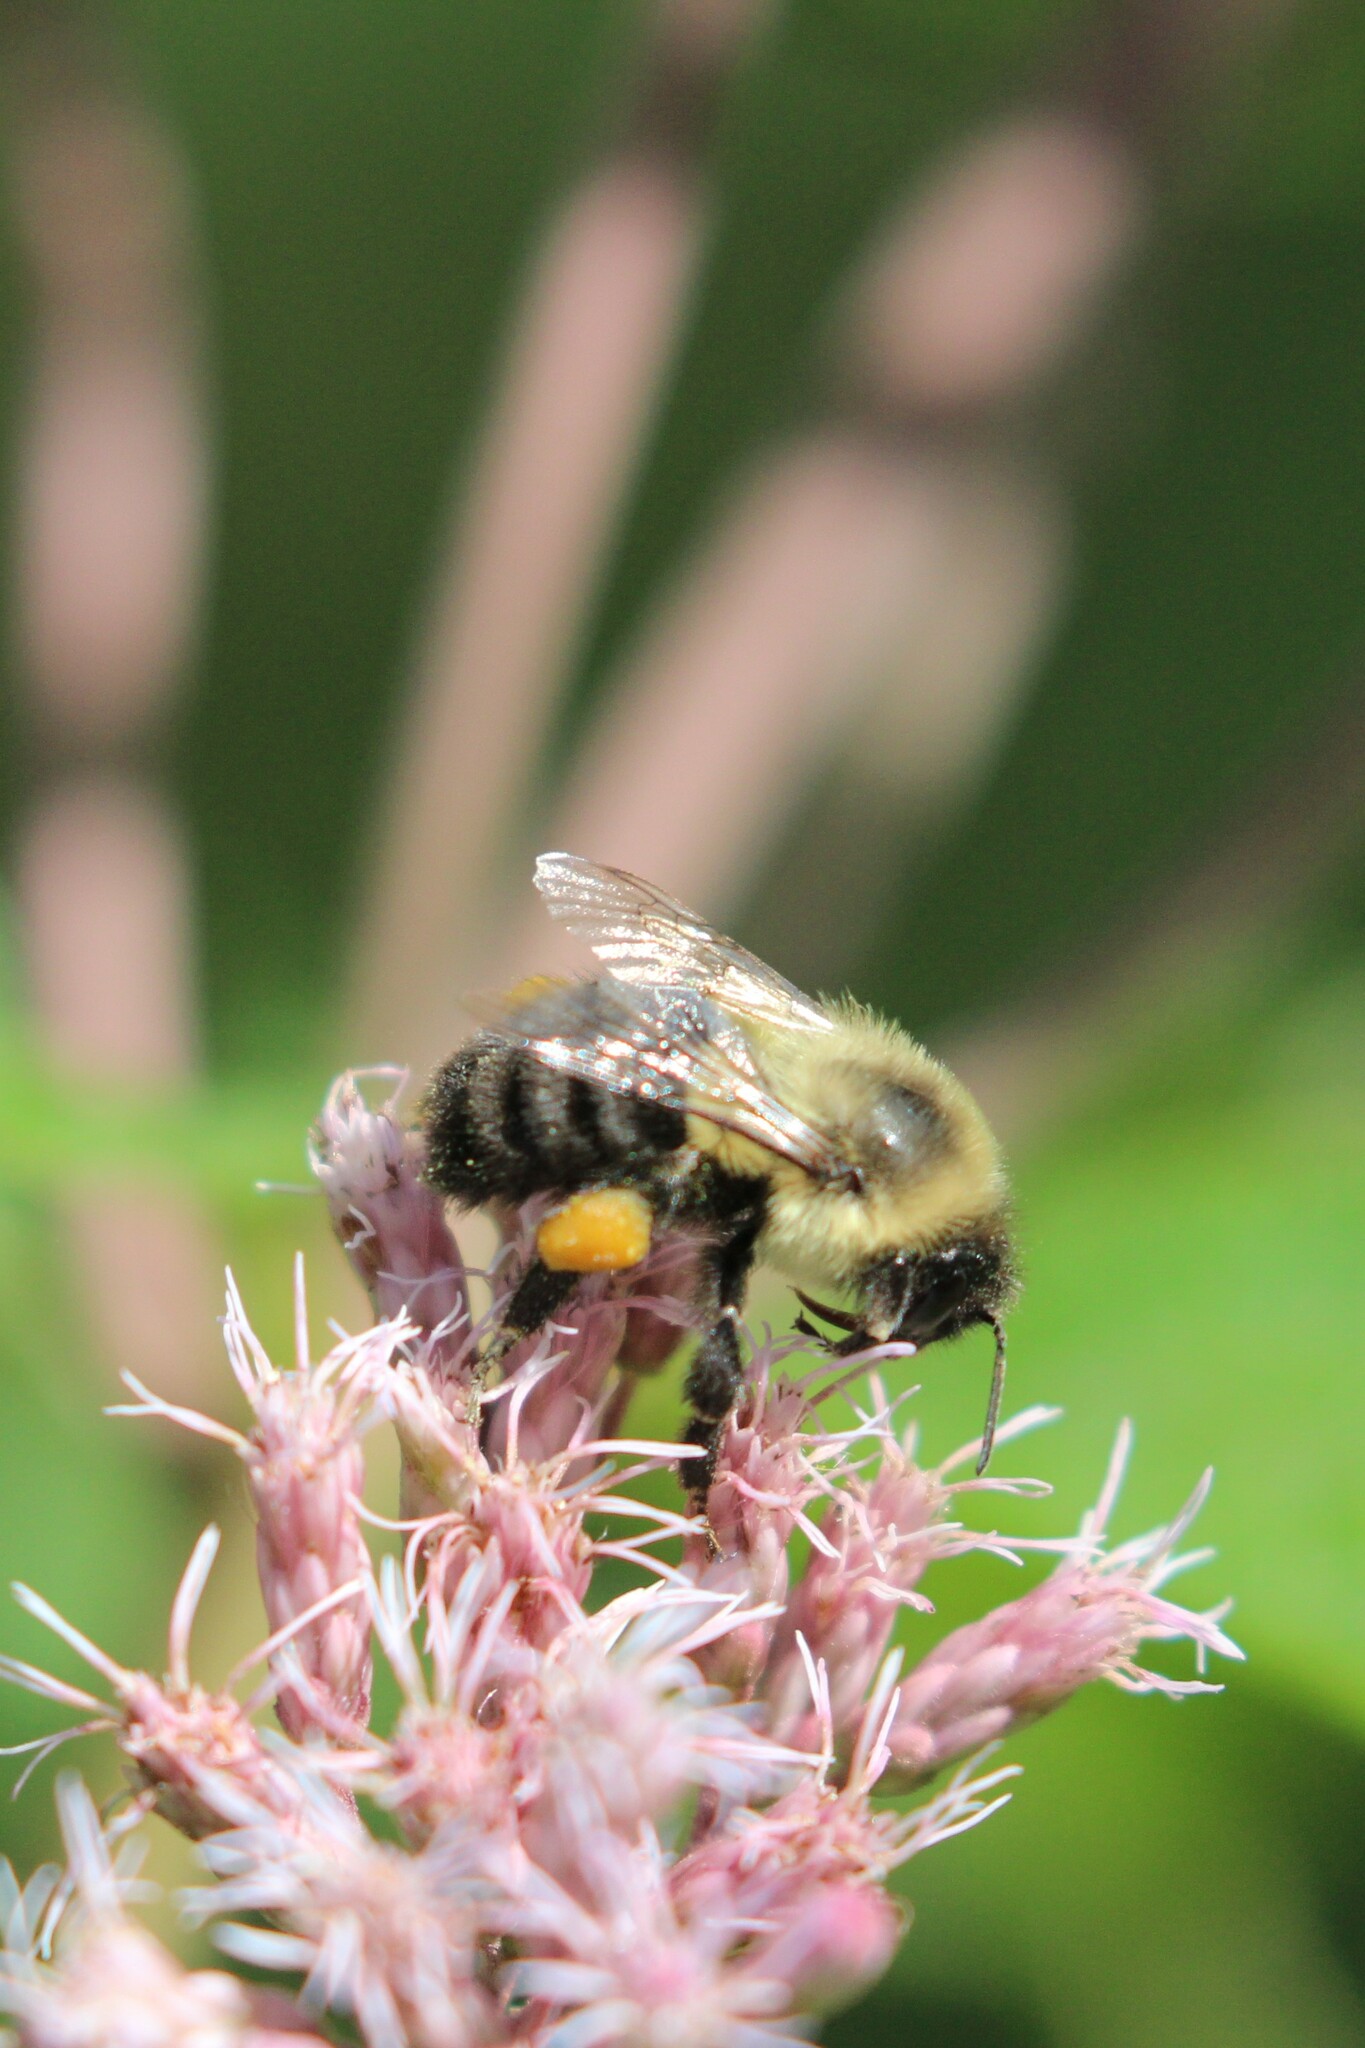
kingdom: Animalia
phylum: Arthropoda
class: Insecta
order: Hymenoptera
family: Apidae
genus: Bombus
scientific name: Bombus impatiens
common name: Common eastern bumble bee
